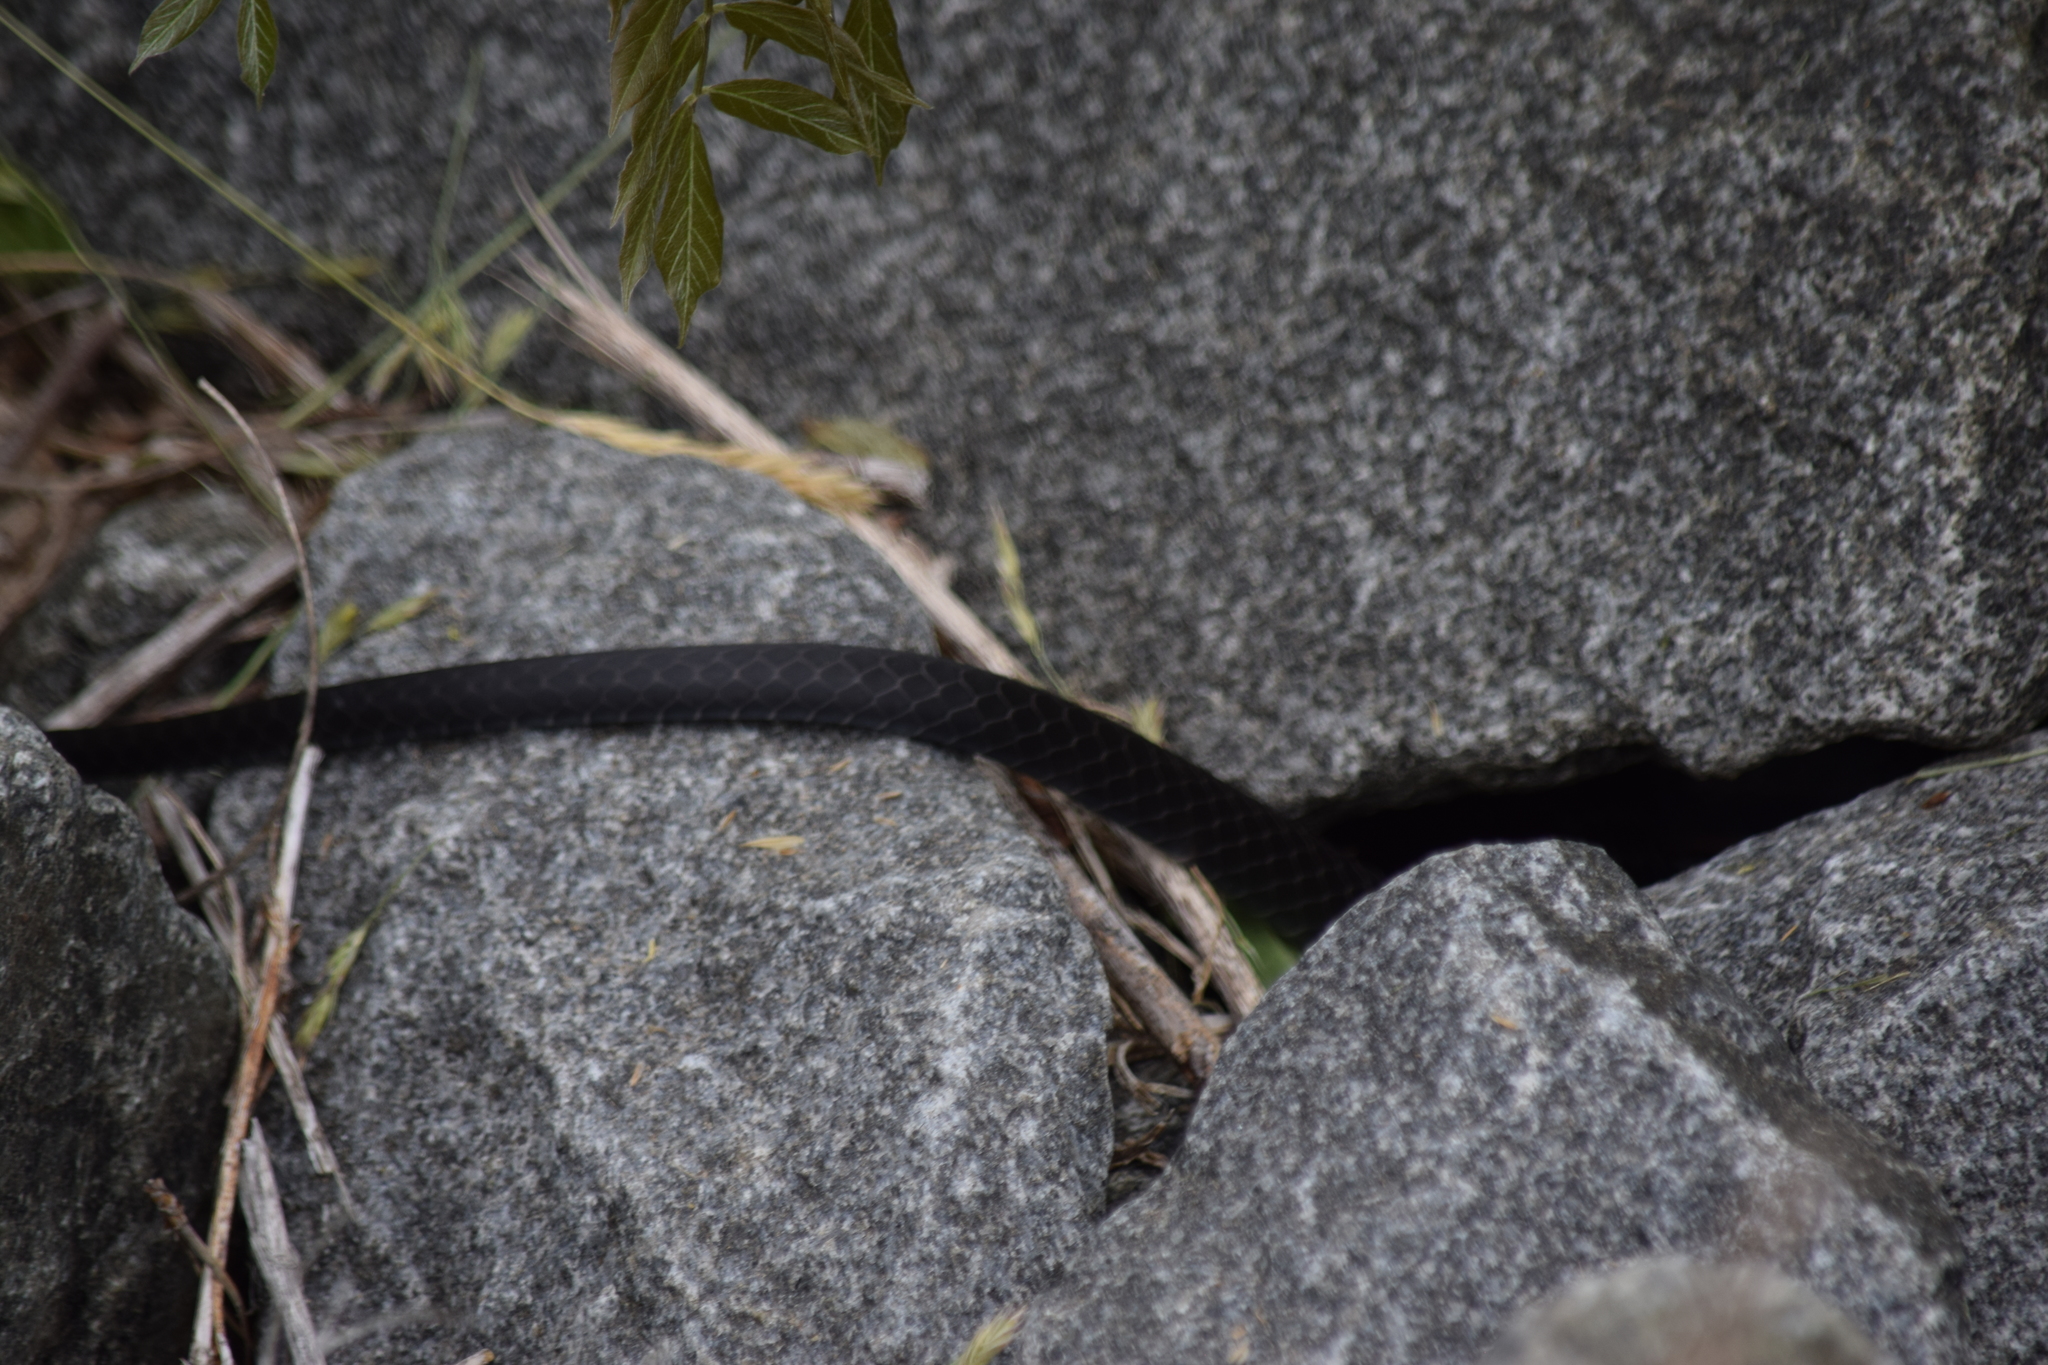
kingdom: Animalia
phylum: Chordata
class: Squamata
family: Colubridae
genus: Coluber
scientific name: Coluber constrictor
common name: Eastern racer
